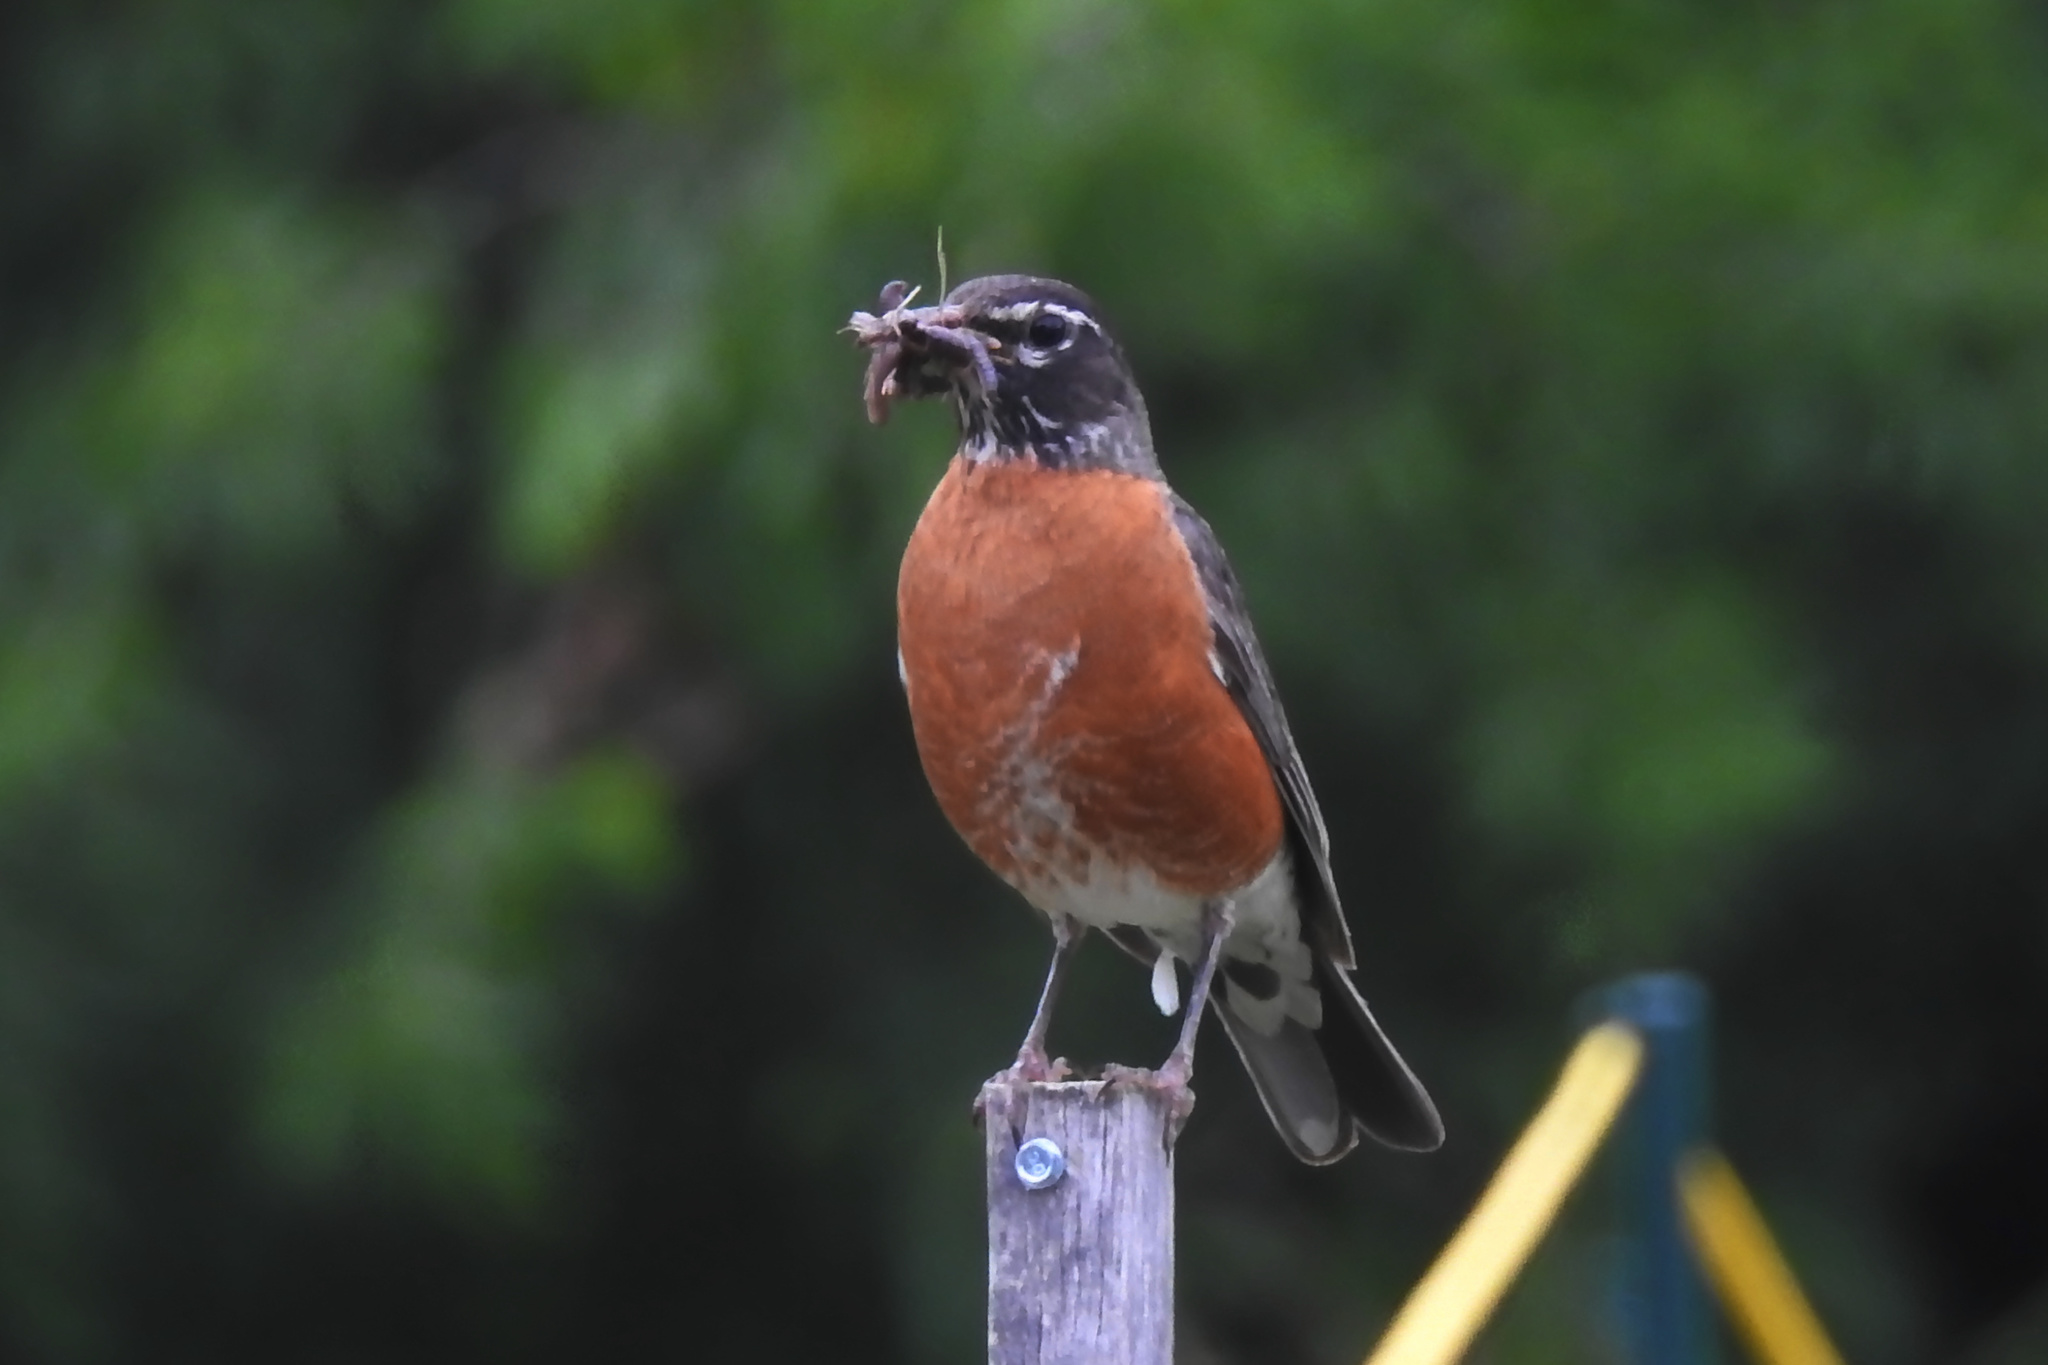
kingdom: Animalia
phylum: Chordata
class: Aves
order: Passeriformes
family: Turdidae
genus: Turdus
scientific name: Turdus migratorius
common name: American robin
